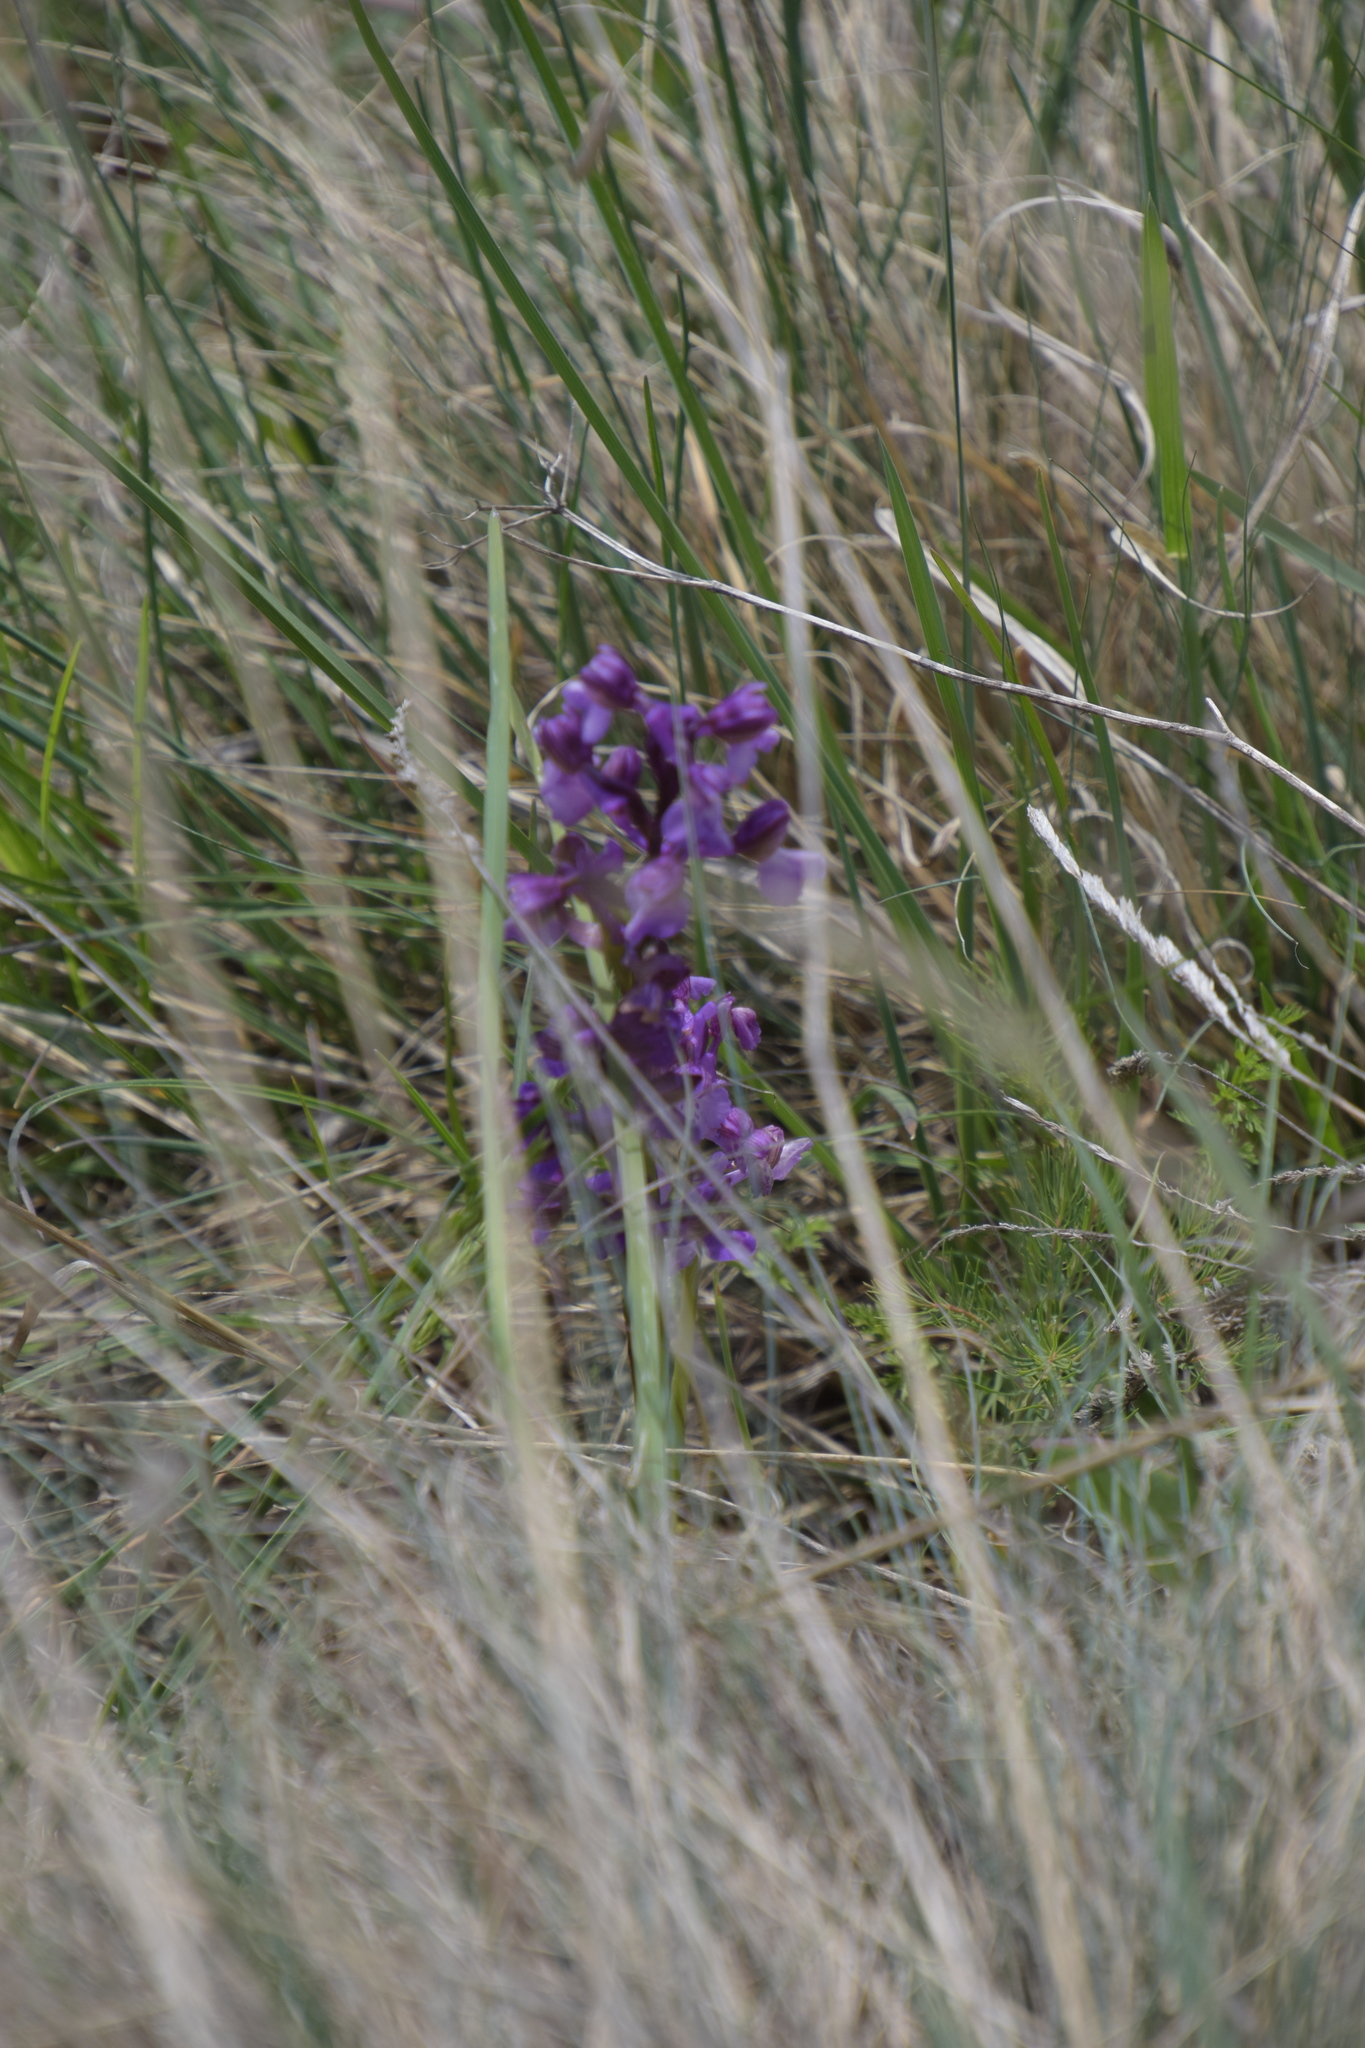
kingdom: Plantae
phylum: Tracheophyta
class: Liliopsida
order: Asparagales
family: Orchidaceae
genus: Anacamptis
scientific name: Anacamptis morio
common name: Green-winged orchid
